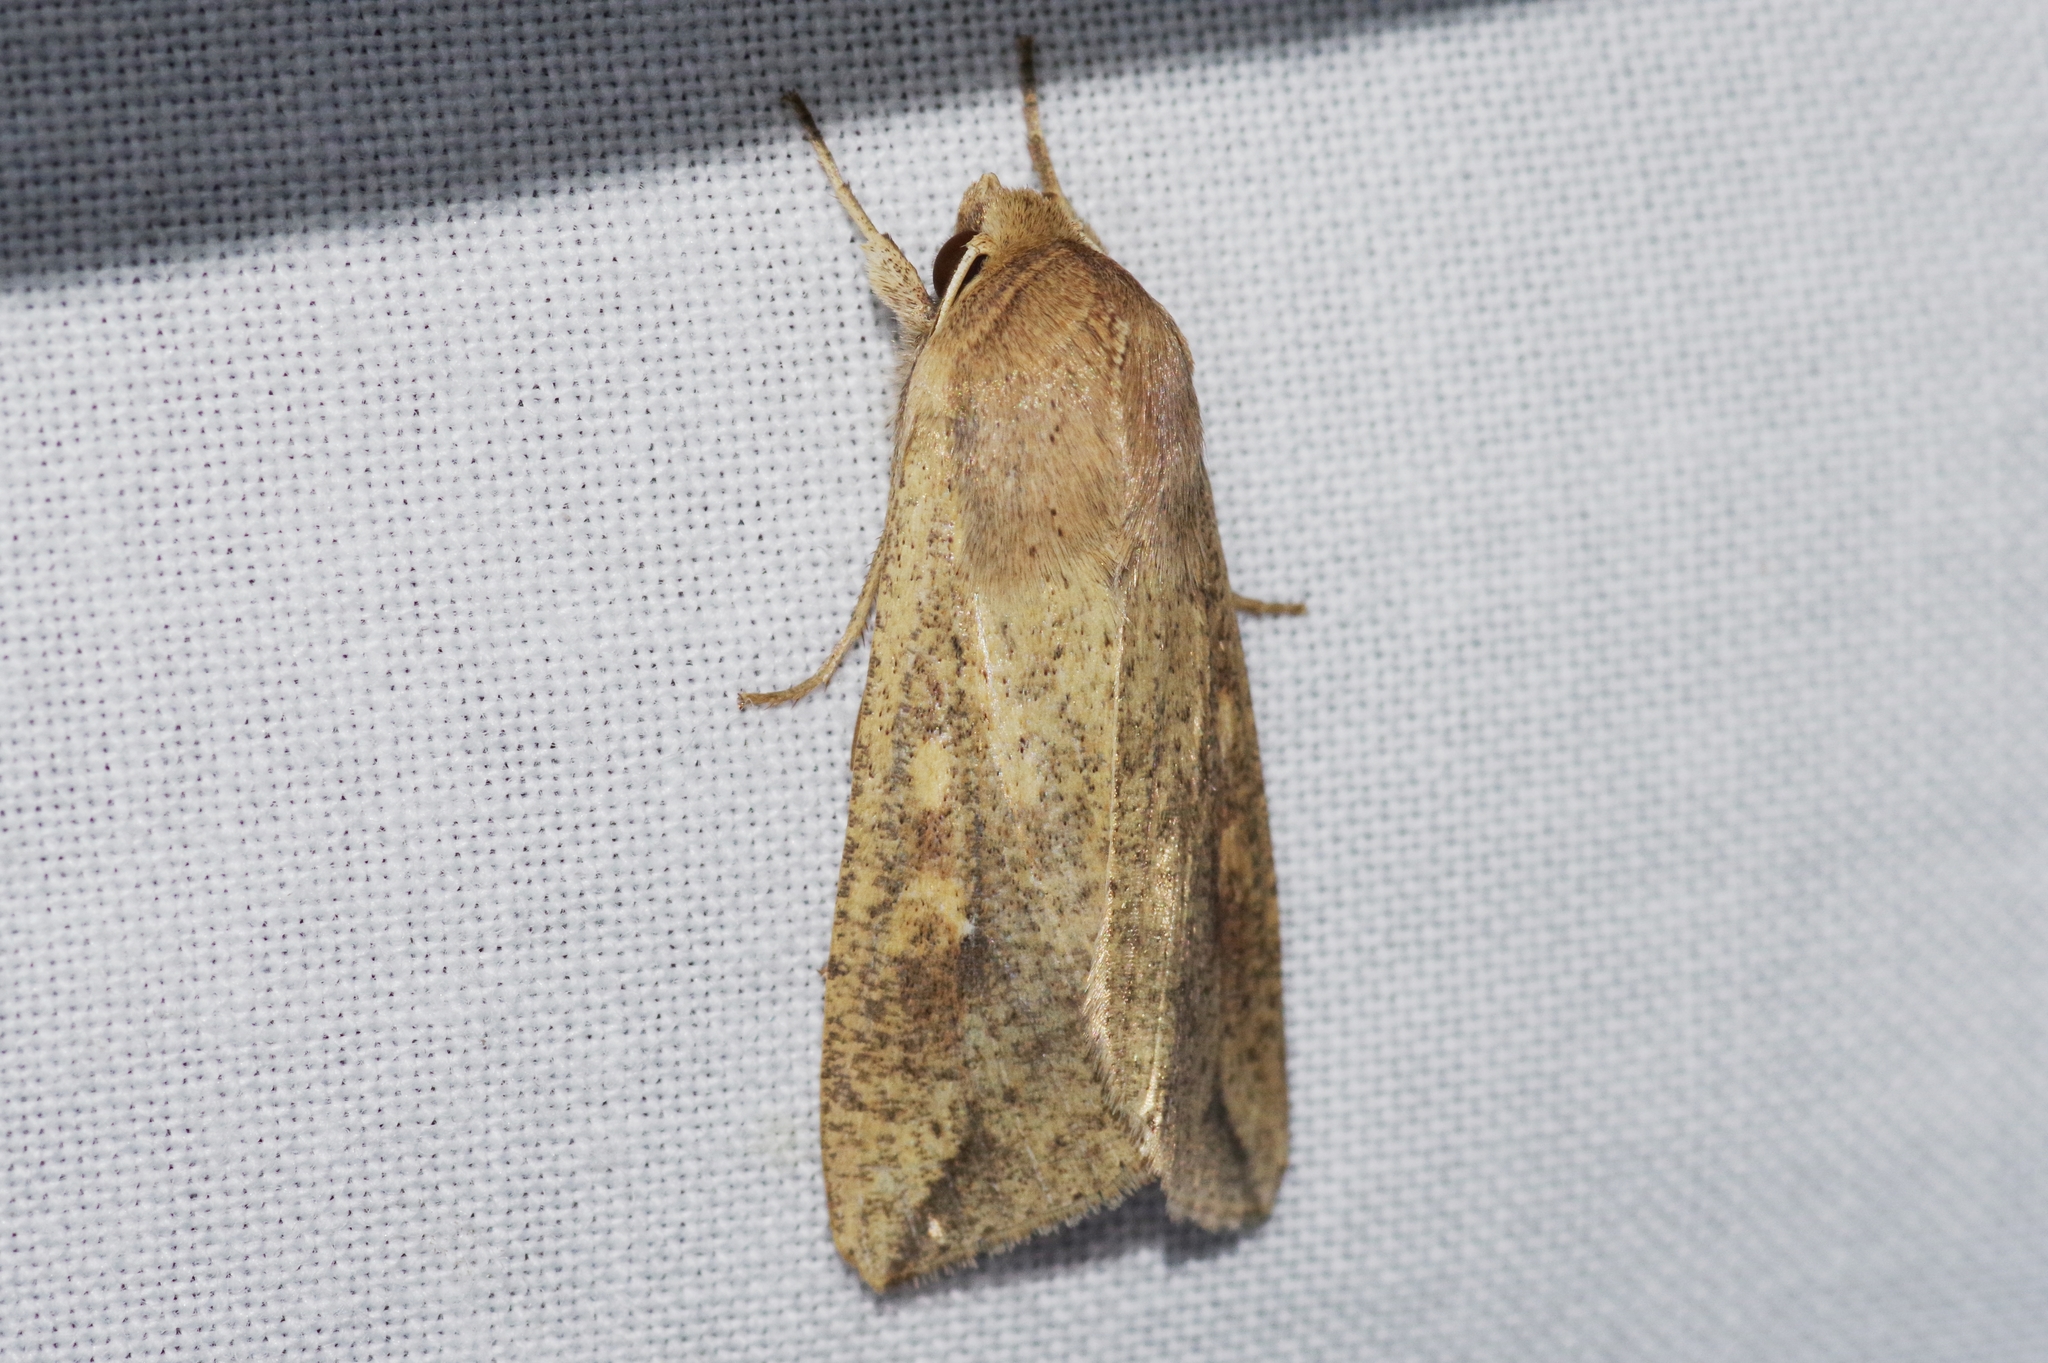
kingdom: Animalia
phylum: Arthropoda
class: Insecta
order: Lepidoptera
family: Noctuidae
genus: Mythimna
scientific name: Mythimna separata
